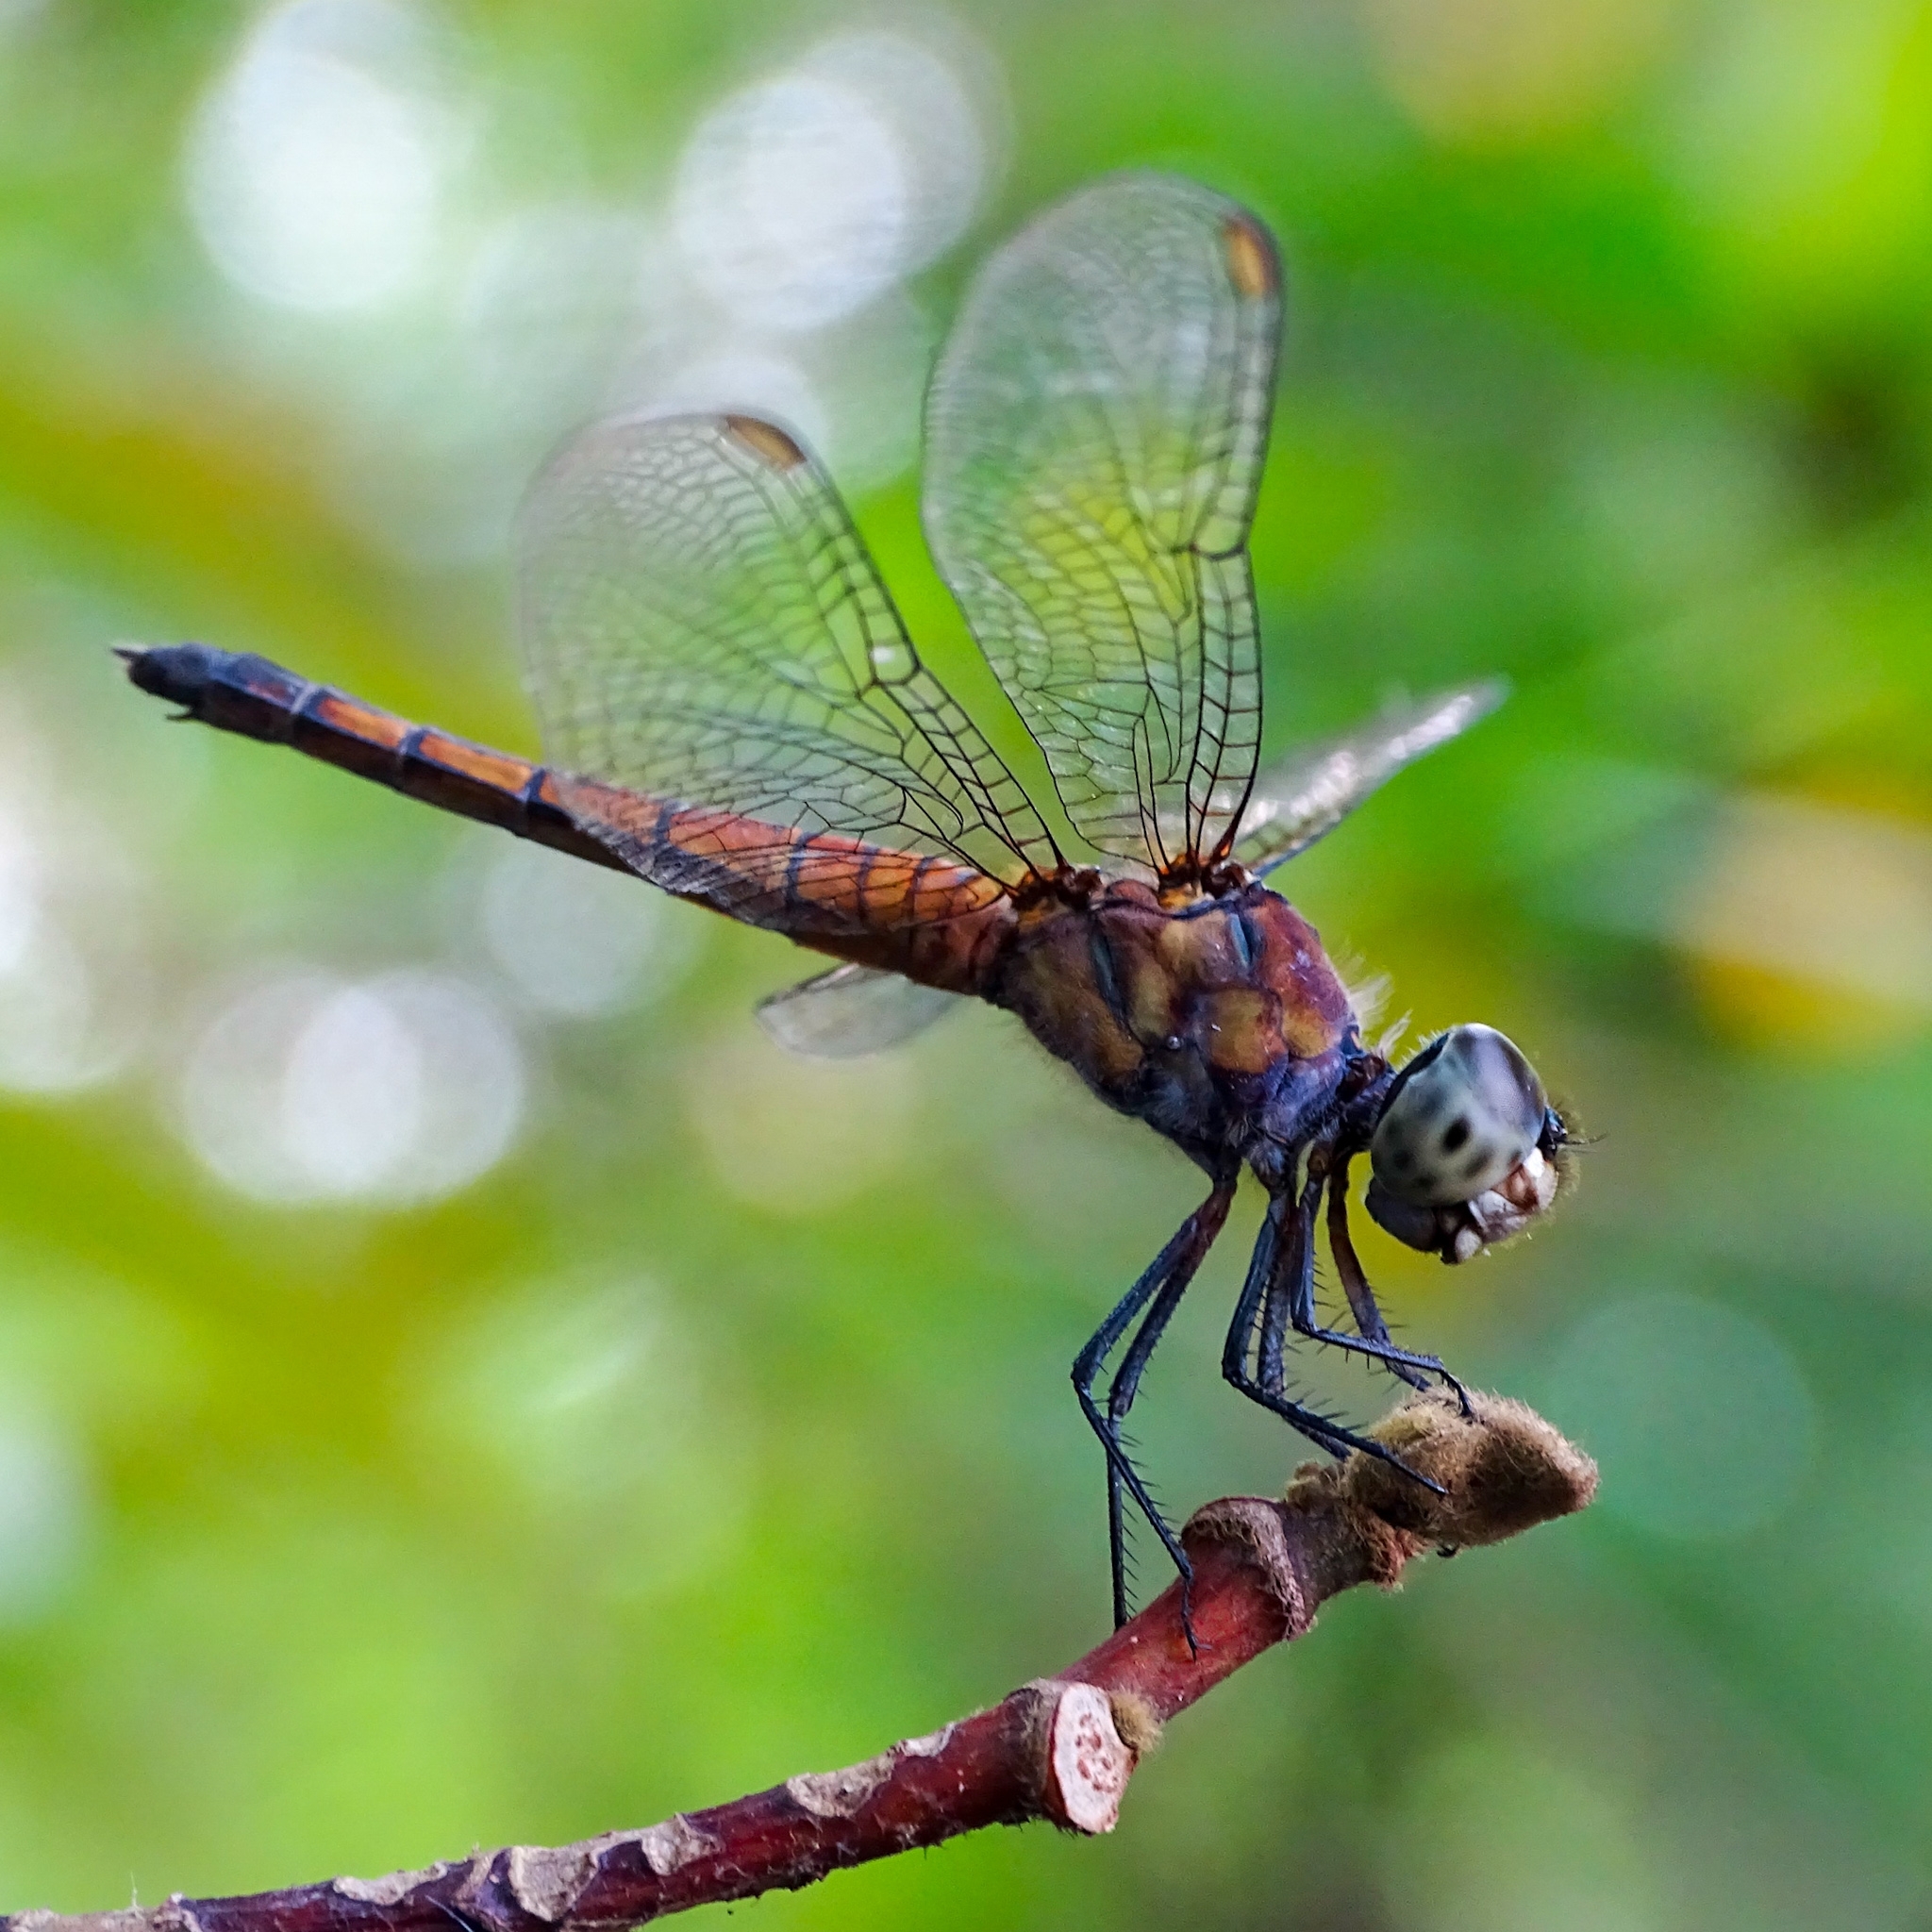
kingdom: Animalia
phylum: Arthropoda
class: Insecta
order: Odonata
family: Libellulidae
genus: Brachydiplax
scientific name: Brachydiplax chalybea
